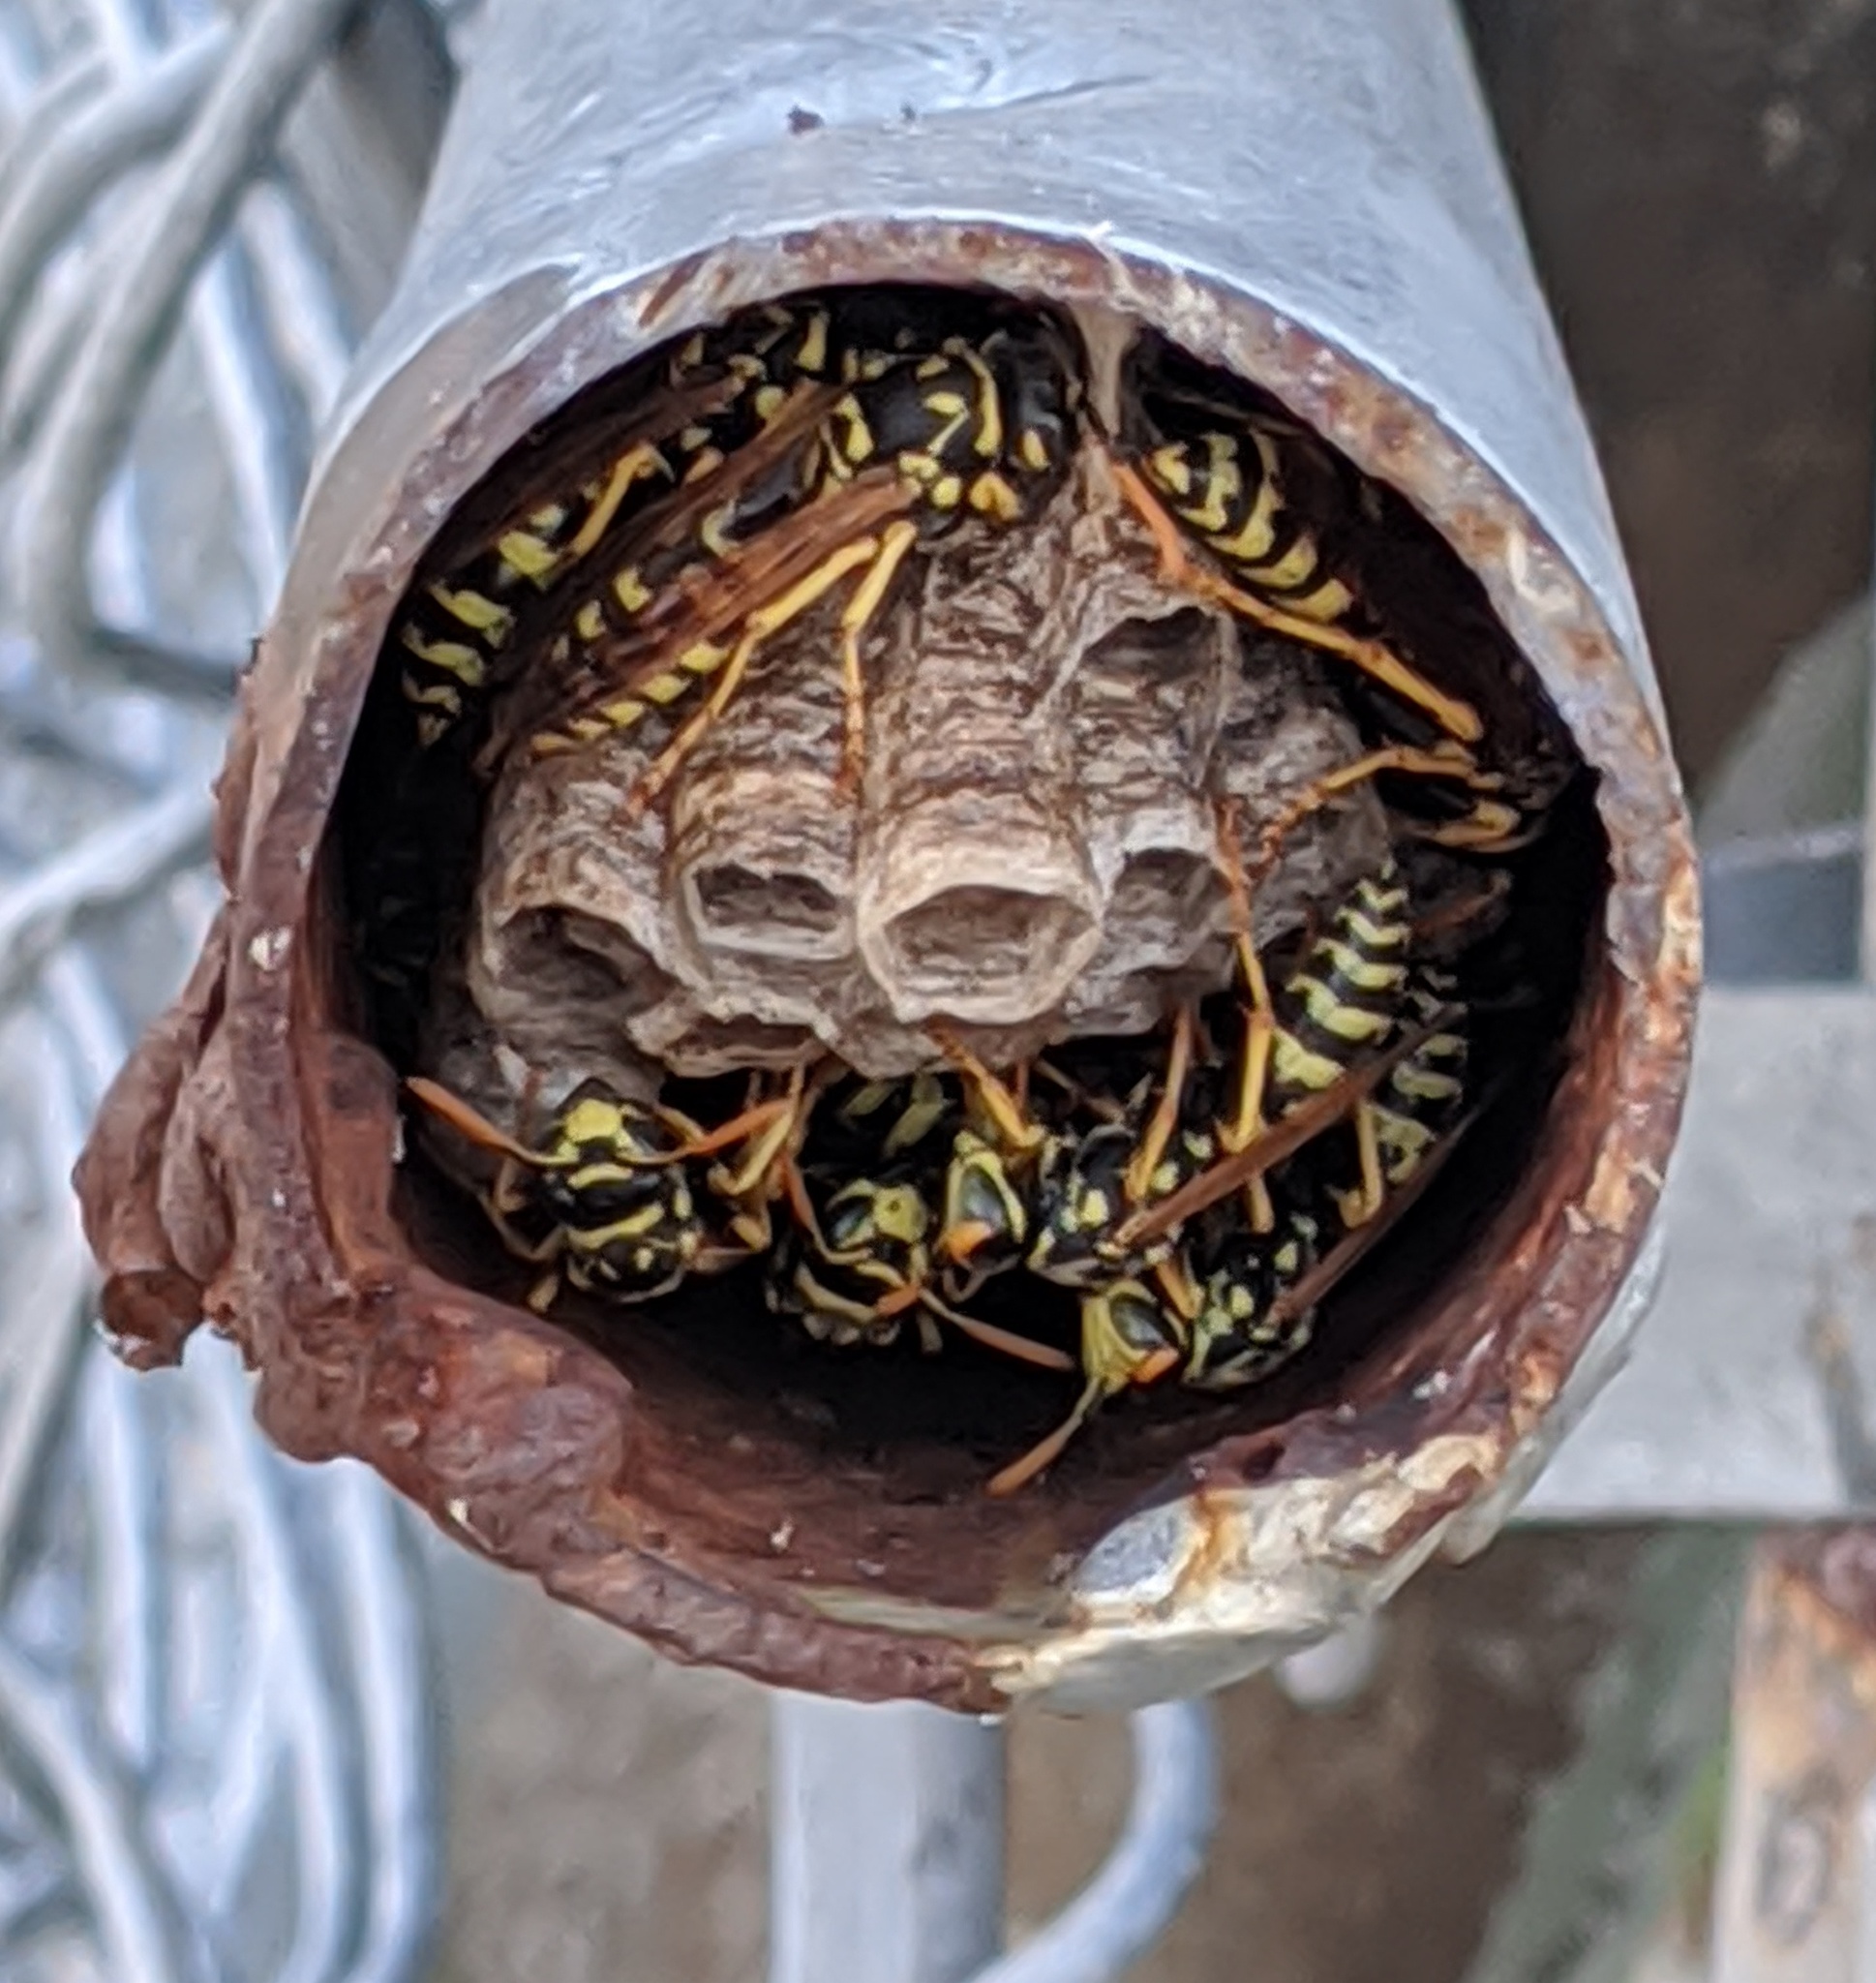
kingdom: Animalia
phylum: Arthropoda
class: Insecta
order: Hymenoptera
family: Eumenidae
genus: Polistes
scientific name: Polistes dominula
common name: Paper wasp
